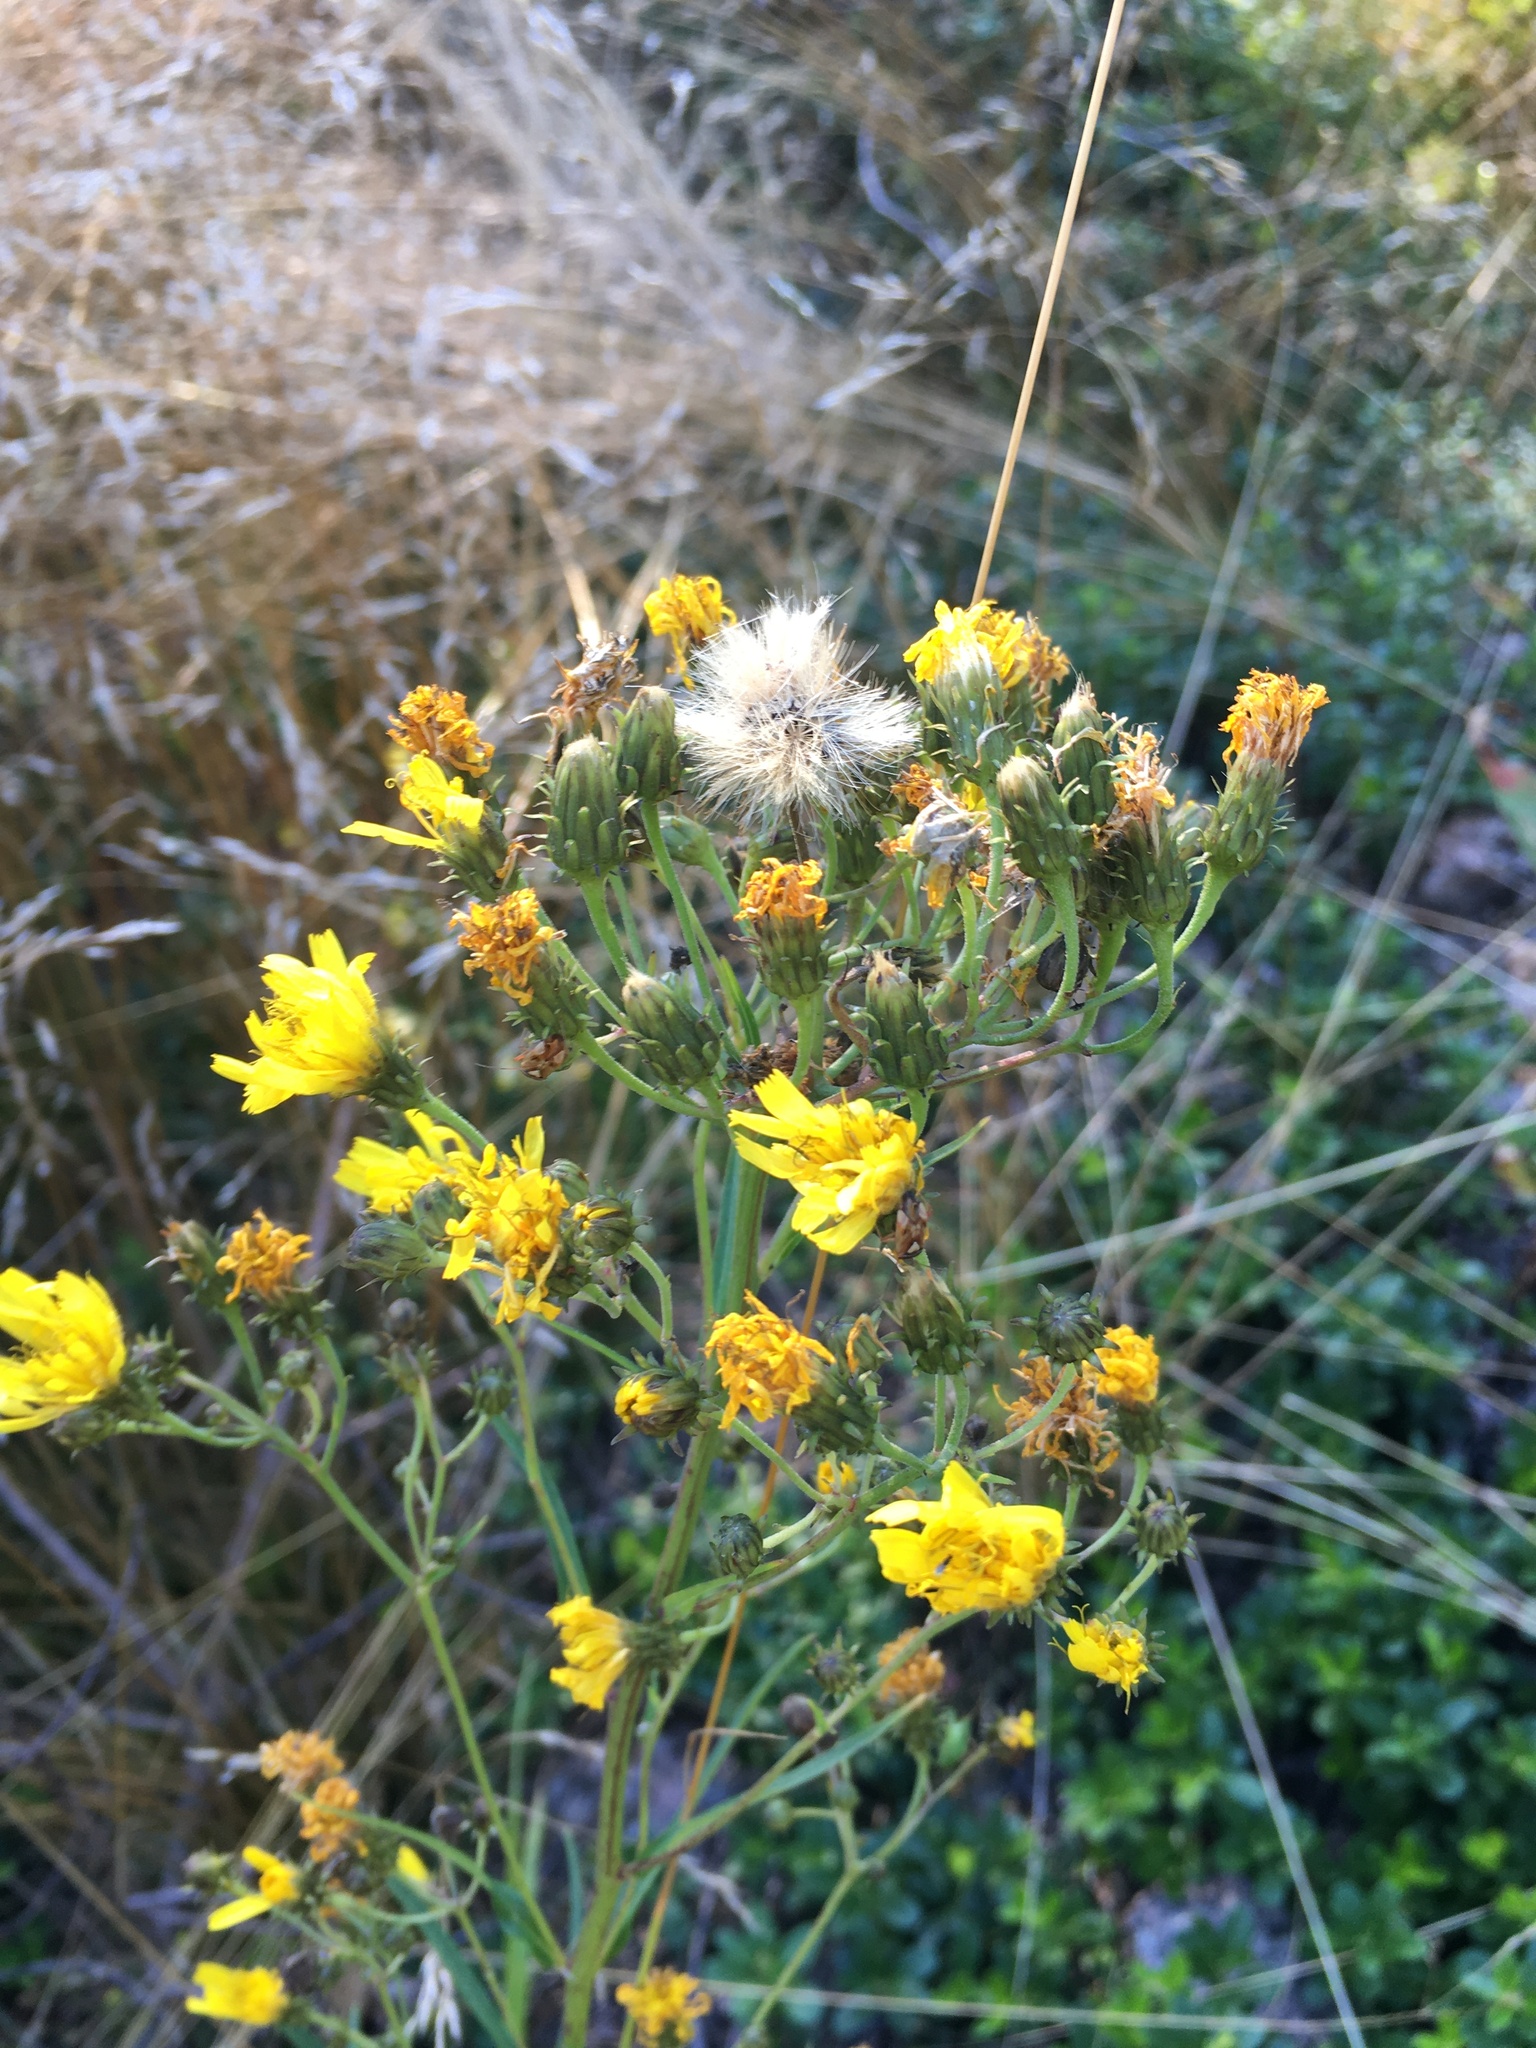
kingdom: Plantae
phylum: Tracheophyta
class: Magnoliopsida
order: Asterales
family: Asteraceae
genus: Hieracium
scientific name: Hieracium umbellatum
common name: Northern hawkweed
